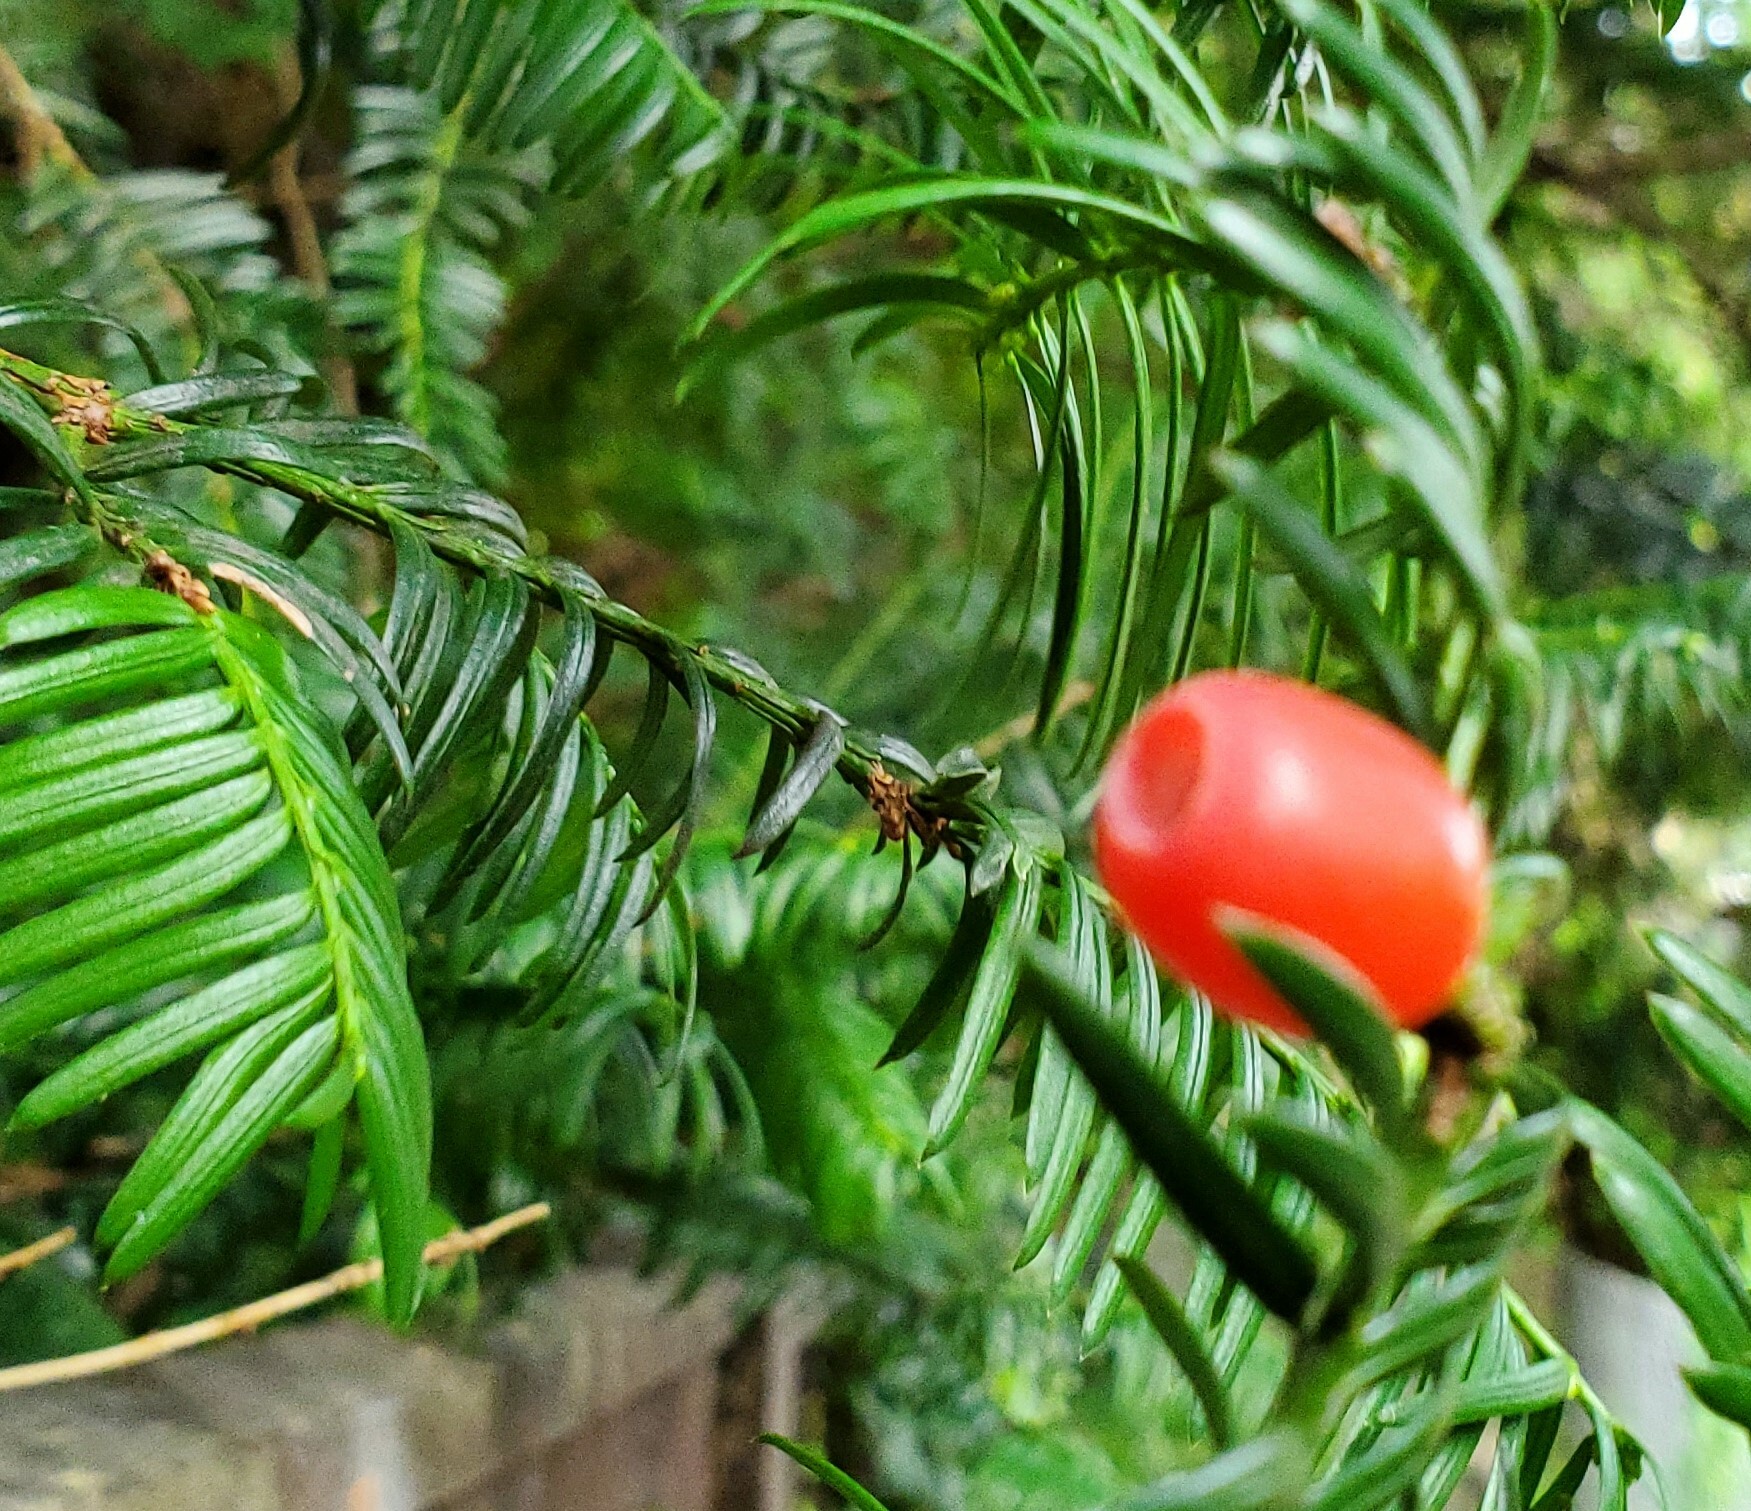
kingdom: Plantae
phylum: Tracheophyta
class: Pinopsida
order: Pinales
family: Taxaceae
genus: Taxus
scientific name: Taxus baccata
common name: Yew
